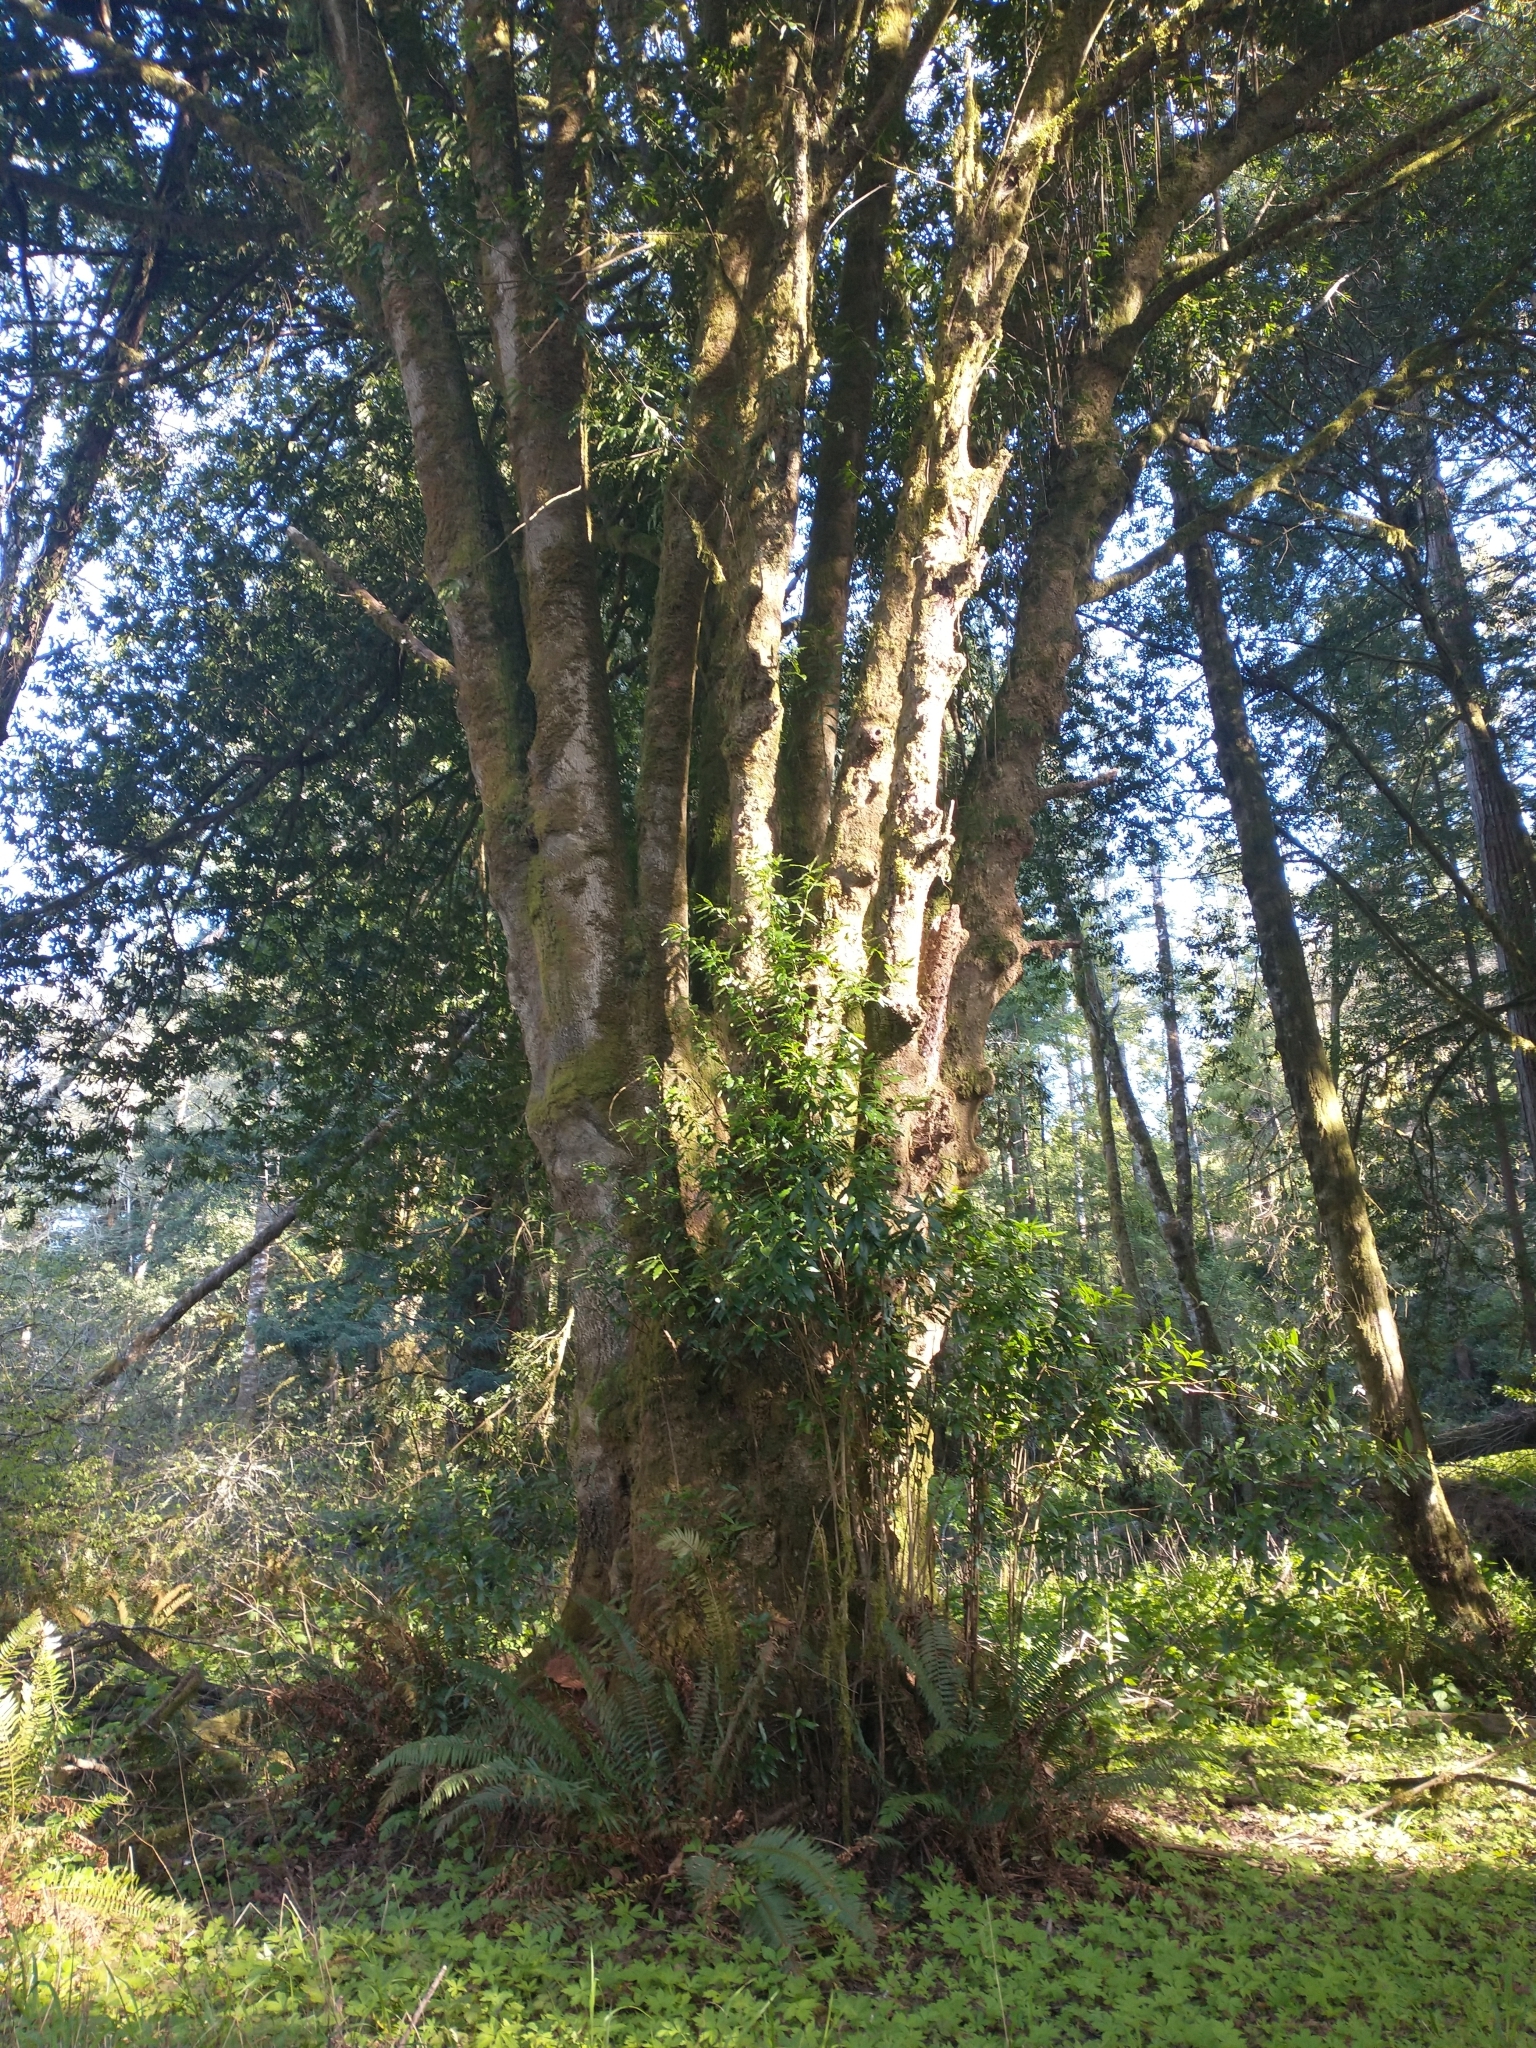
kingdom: Plantae
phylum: Tracheophyta
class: Magnoliopsida
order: Laurales
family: Lauraceae
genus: Umbellularia
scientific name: Umbellularia californica
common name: California bay
